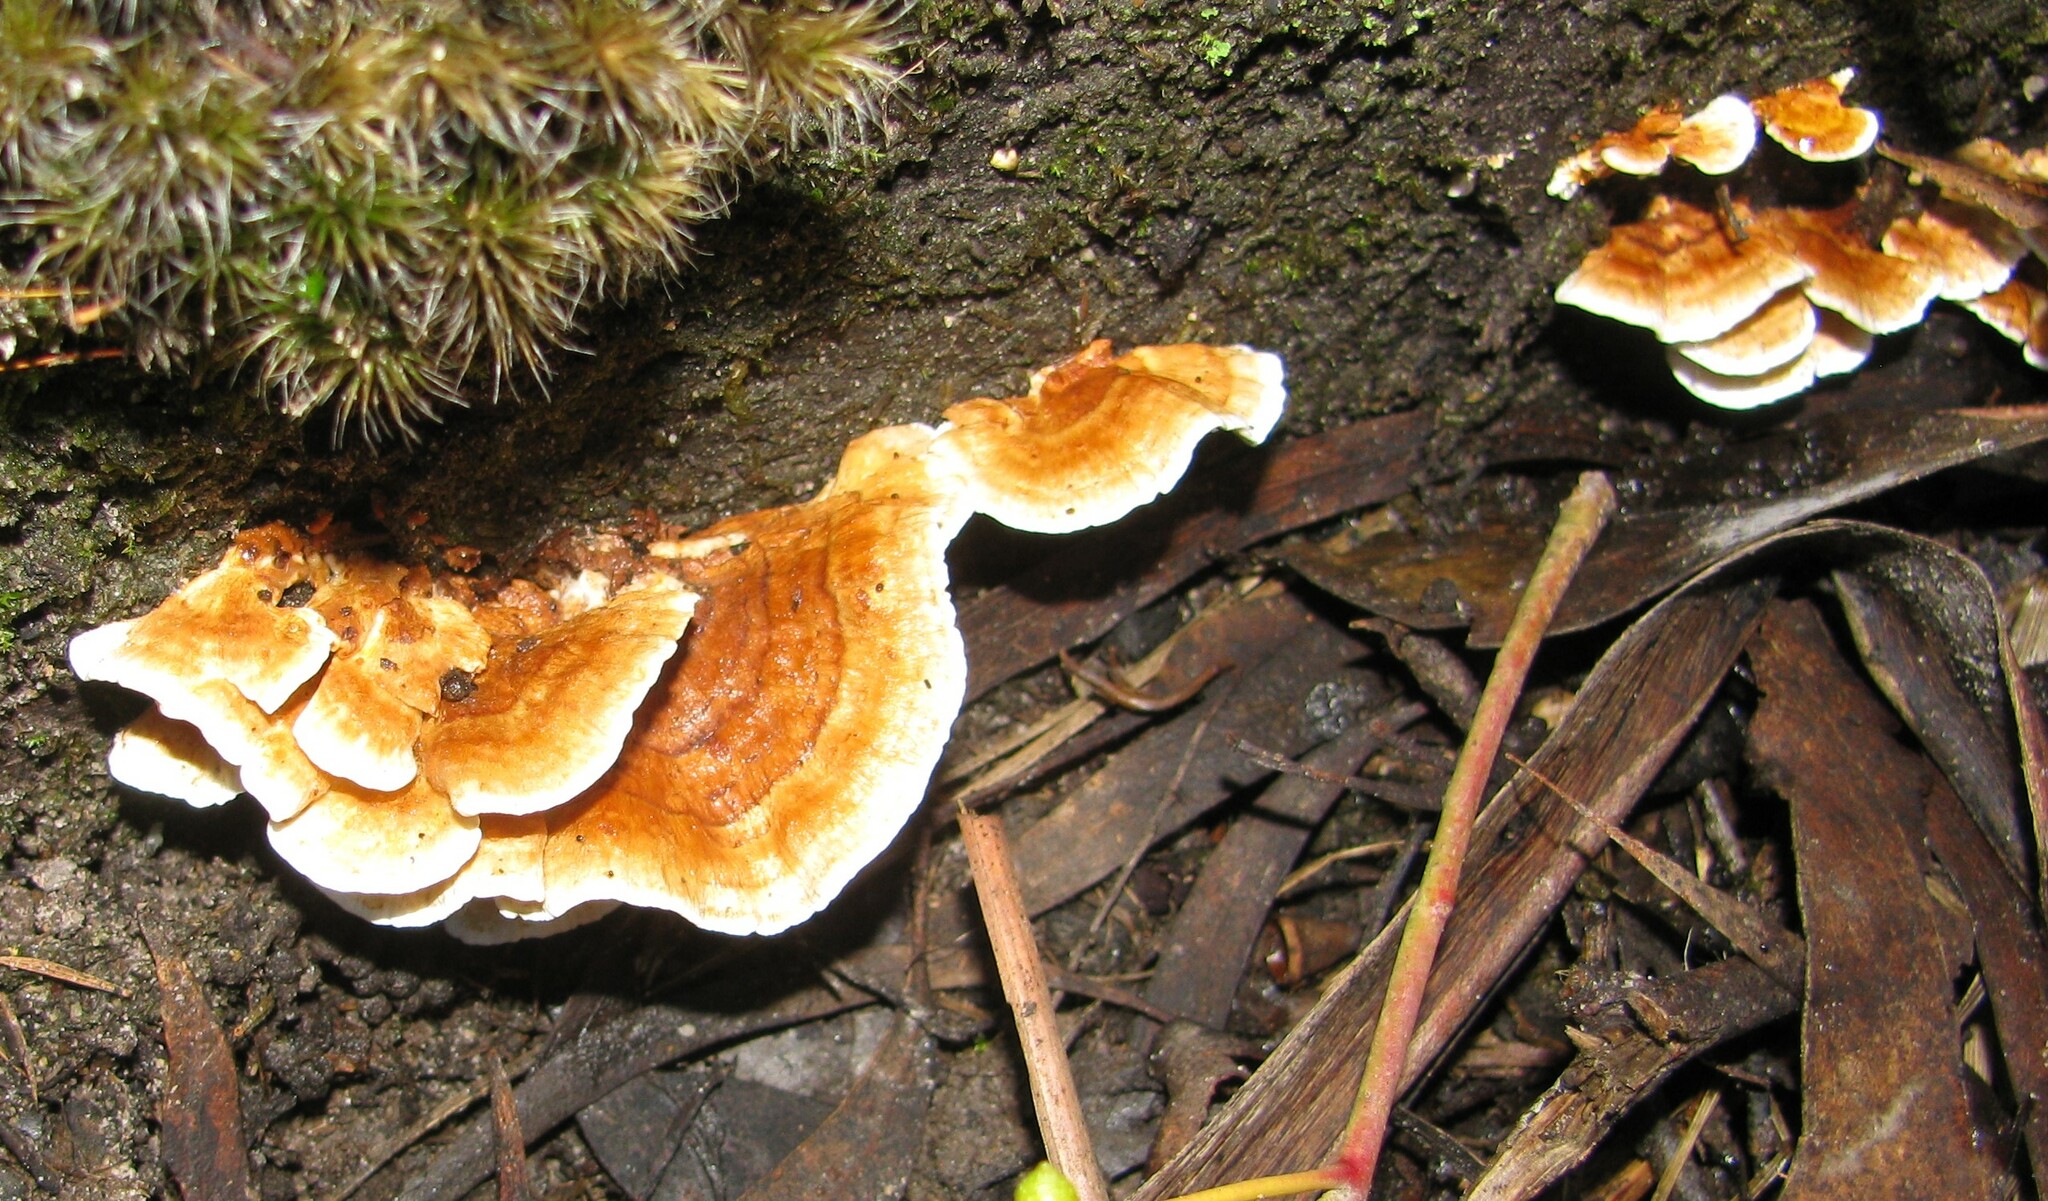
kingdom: Fungi
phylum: Basidiomycota
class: Agaricomycetes
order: Russulales
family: Stereaceae
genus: Stereum
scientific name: Stereum ostrea
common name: False turkeytail
